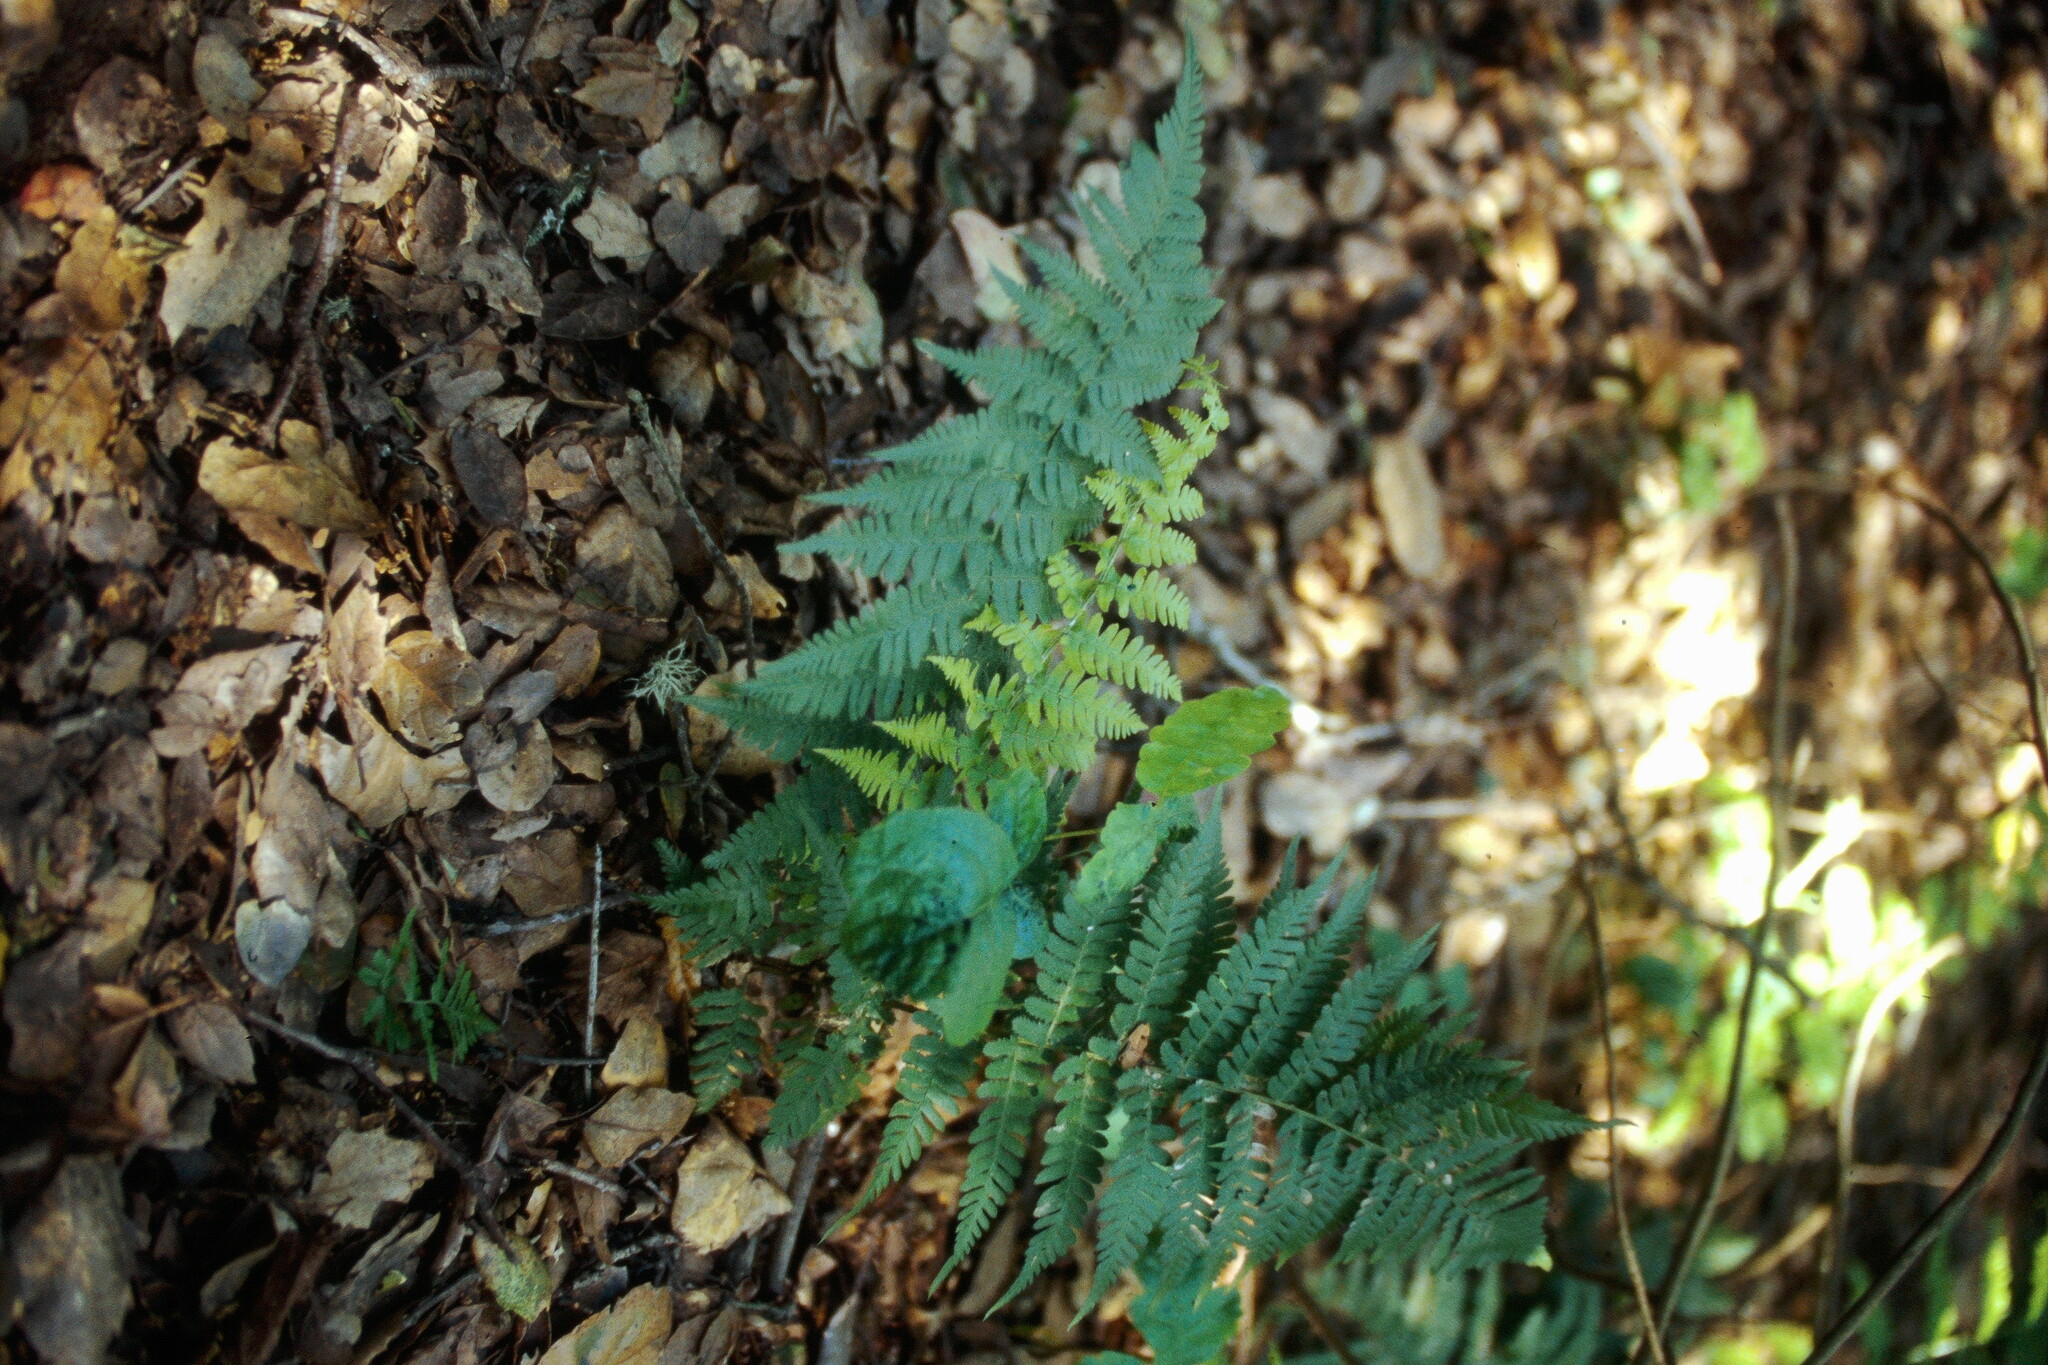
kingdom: Plantae
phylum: Tracheophyta
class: Polypodiopsida
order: Polypodiales
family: Dryopteridaceae
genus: Dryopteris
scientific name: Dryopteris arguta
